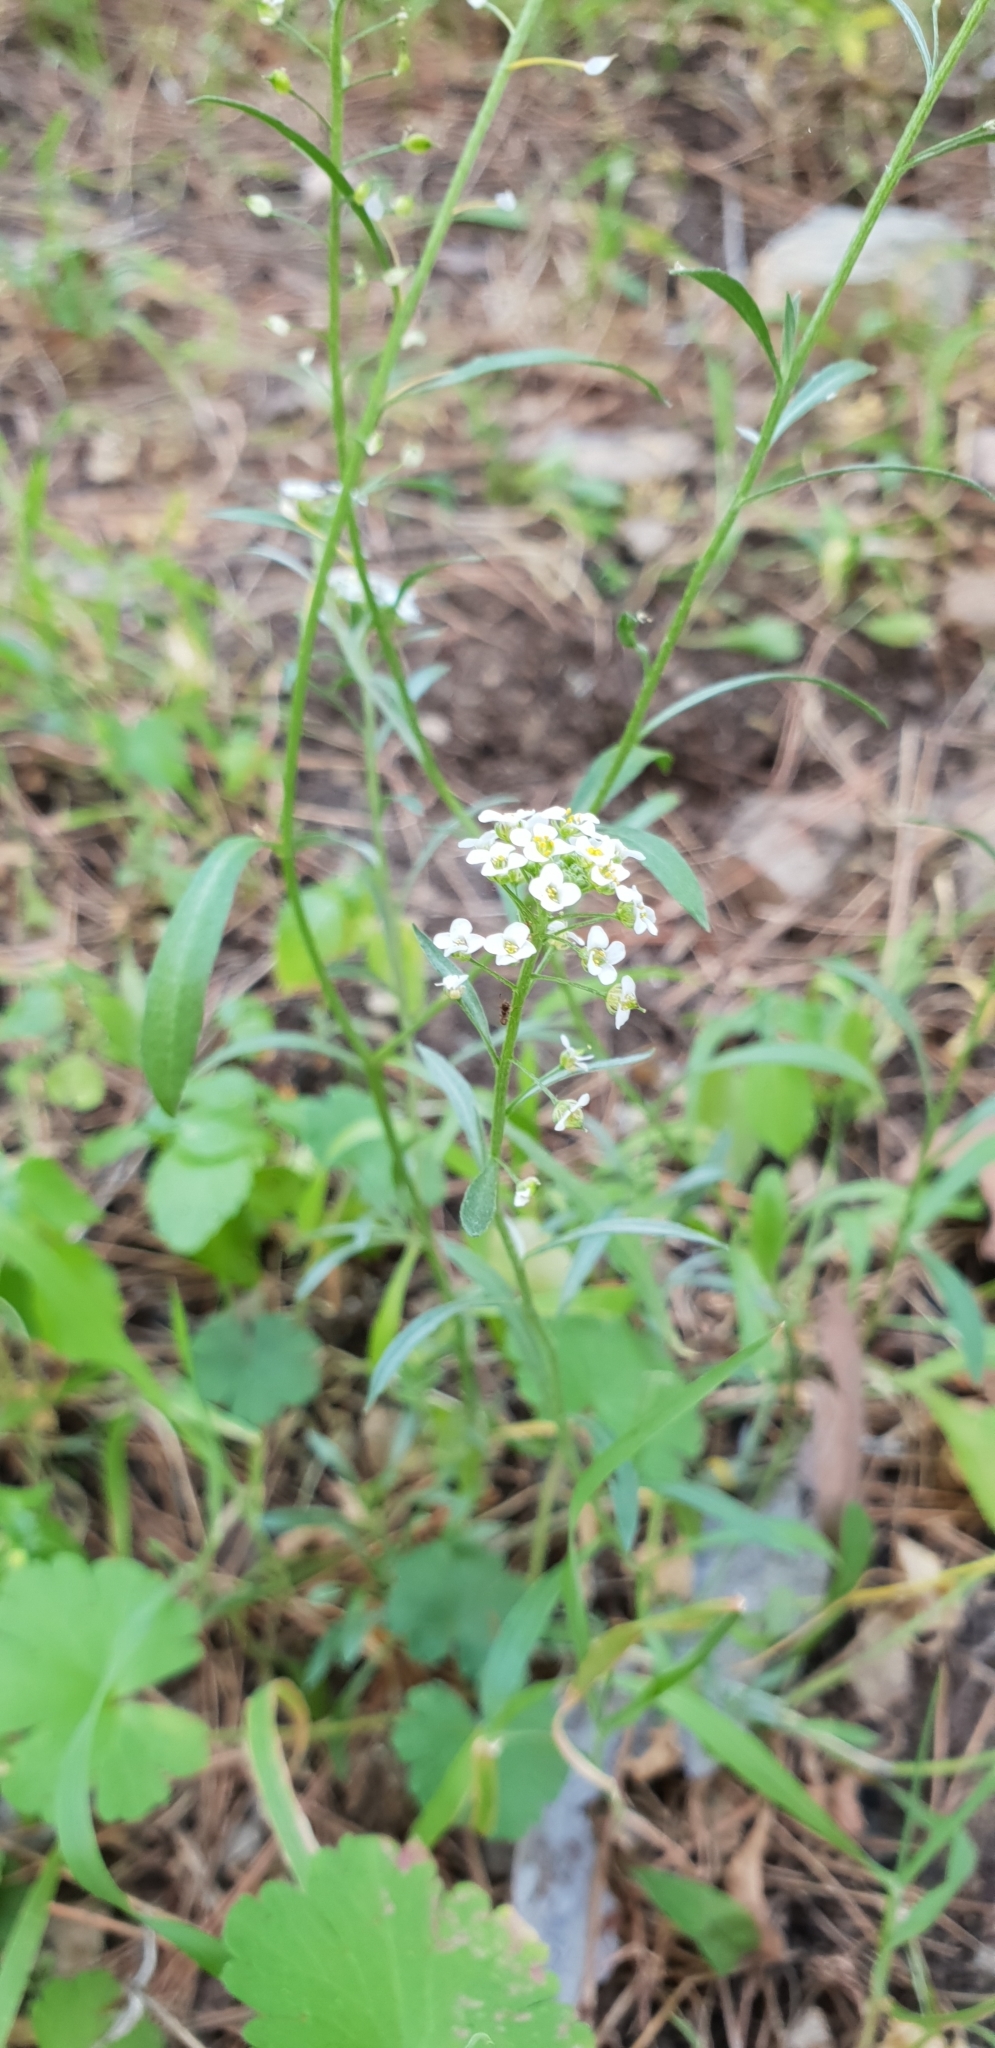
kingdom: Plantae
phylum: Tracheophyta
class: Magnoliopsida
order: Brassicales
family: Brassicaceae
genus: Lobularia
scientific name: Lobularia maritima
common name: Sweet alison
